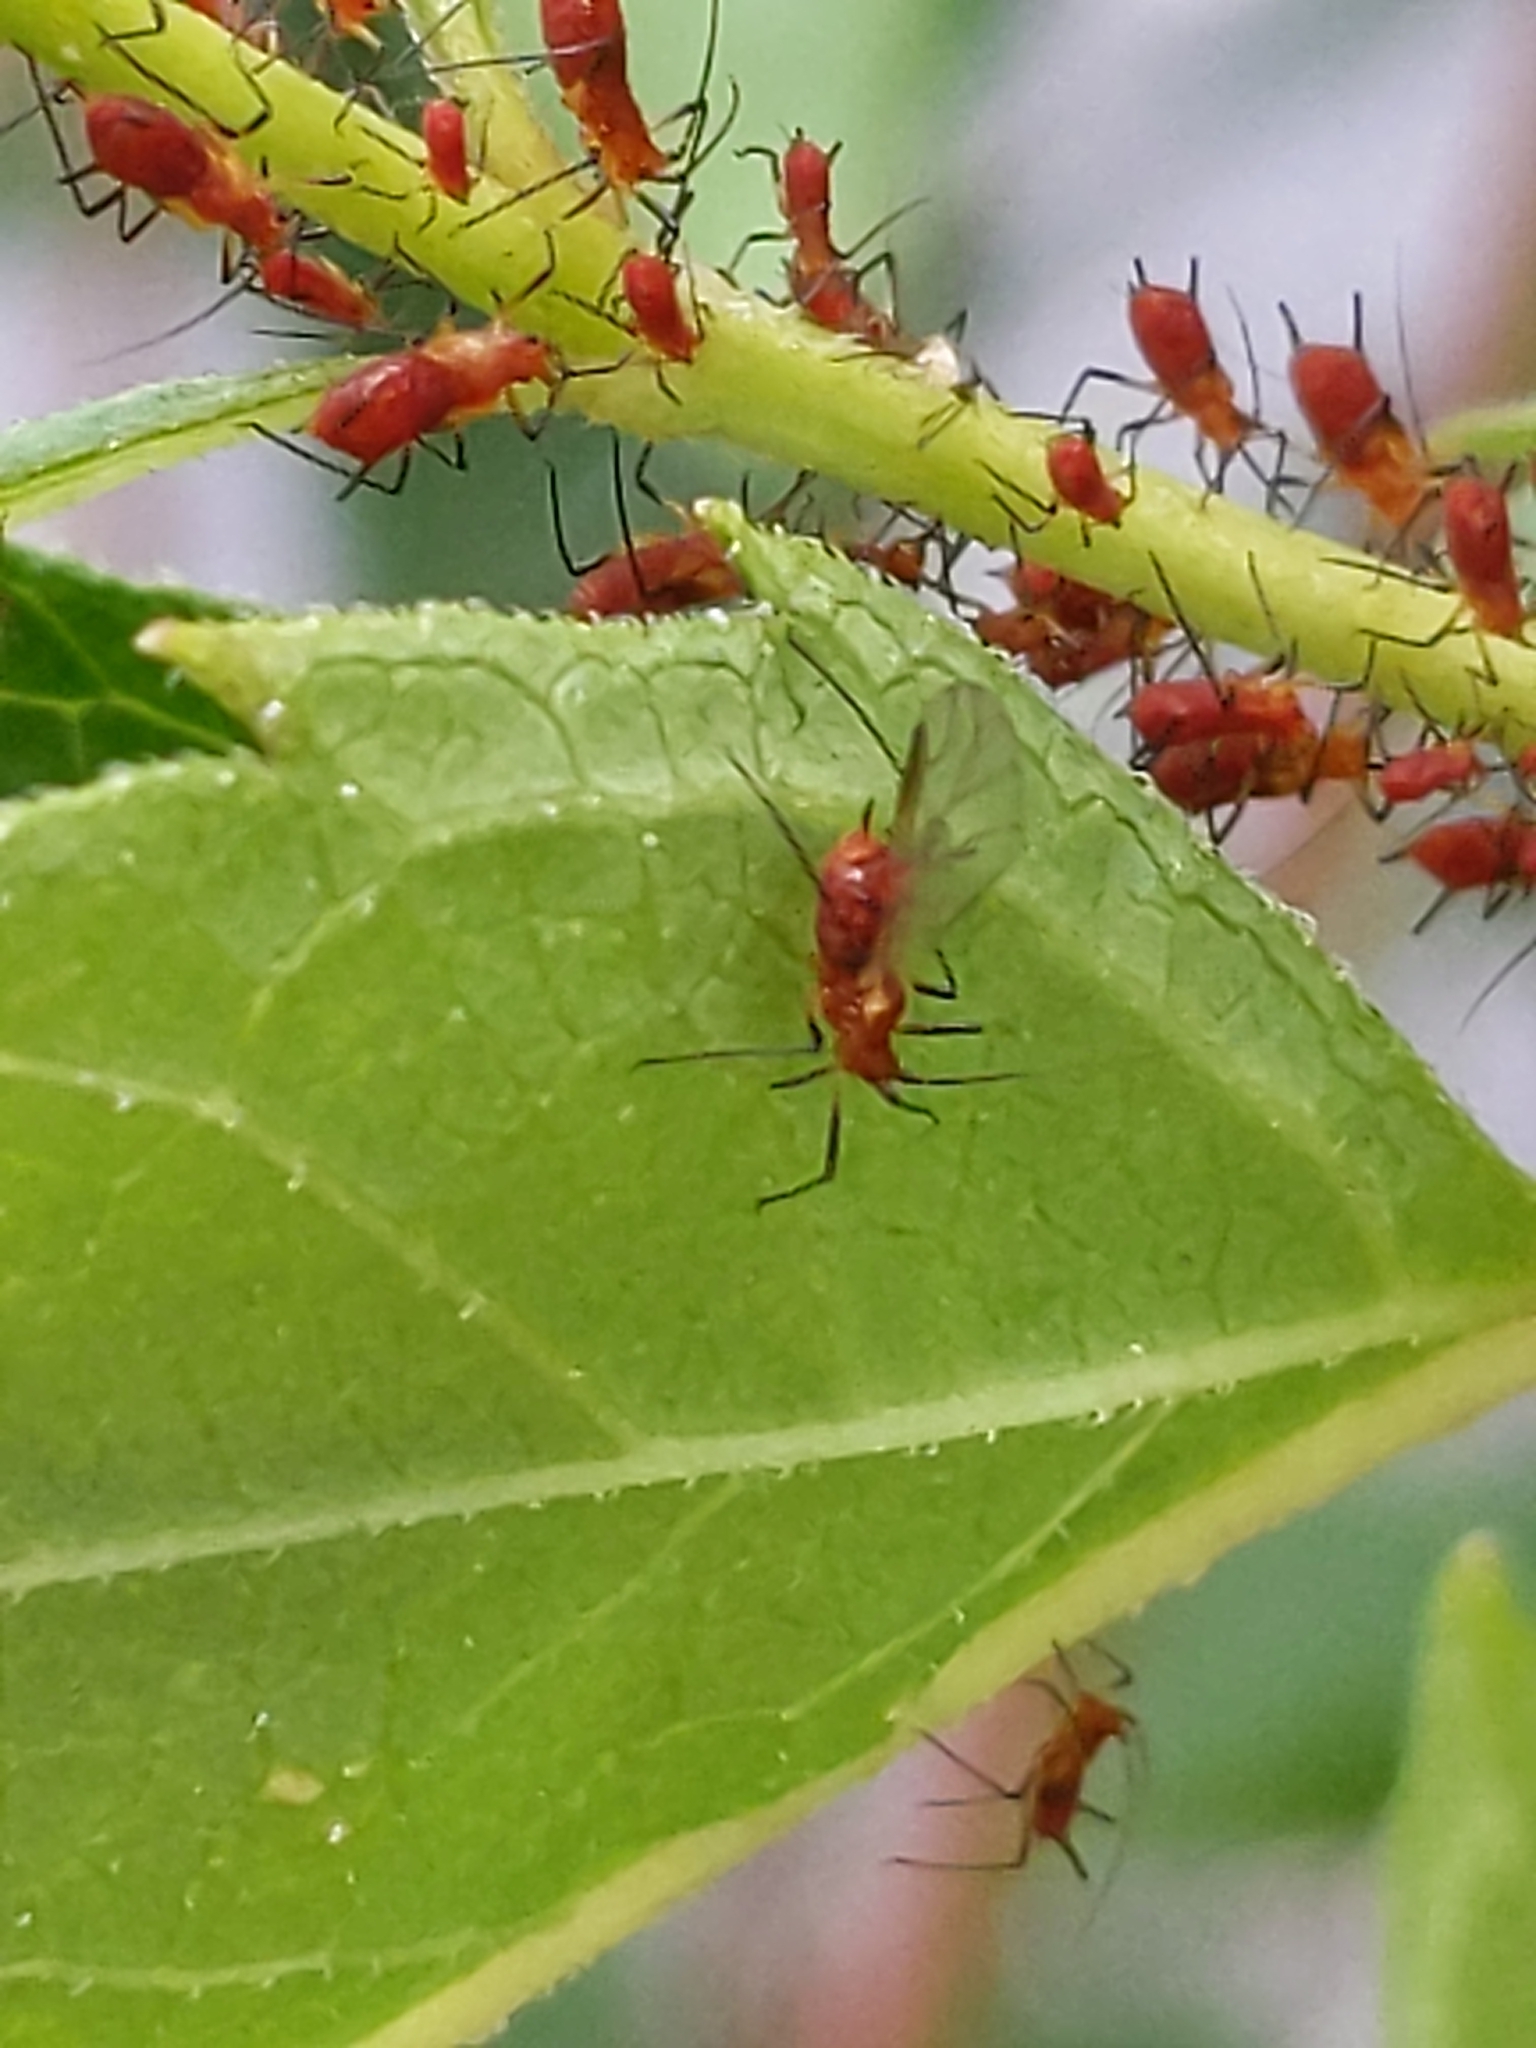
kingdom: Animalia
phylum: Arthropoda
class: Insecta
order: Hemiptera
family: Aphididae
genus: Uroleucon
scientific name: Uroleucon
